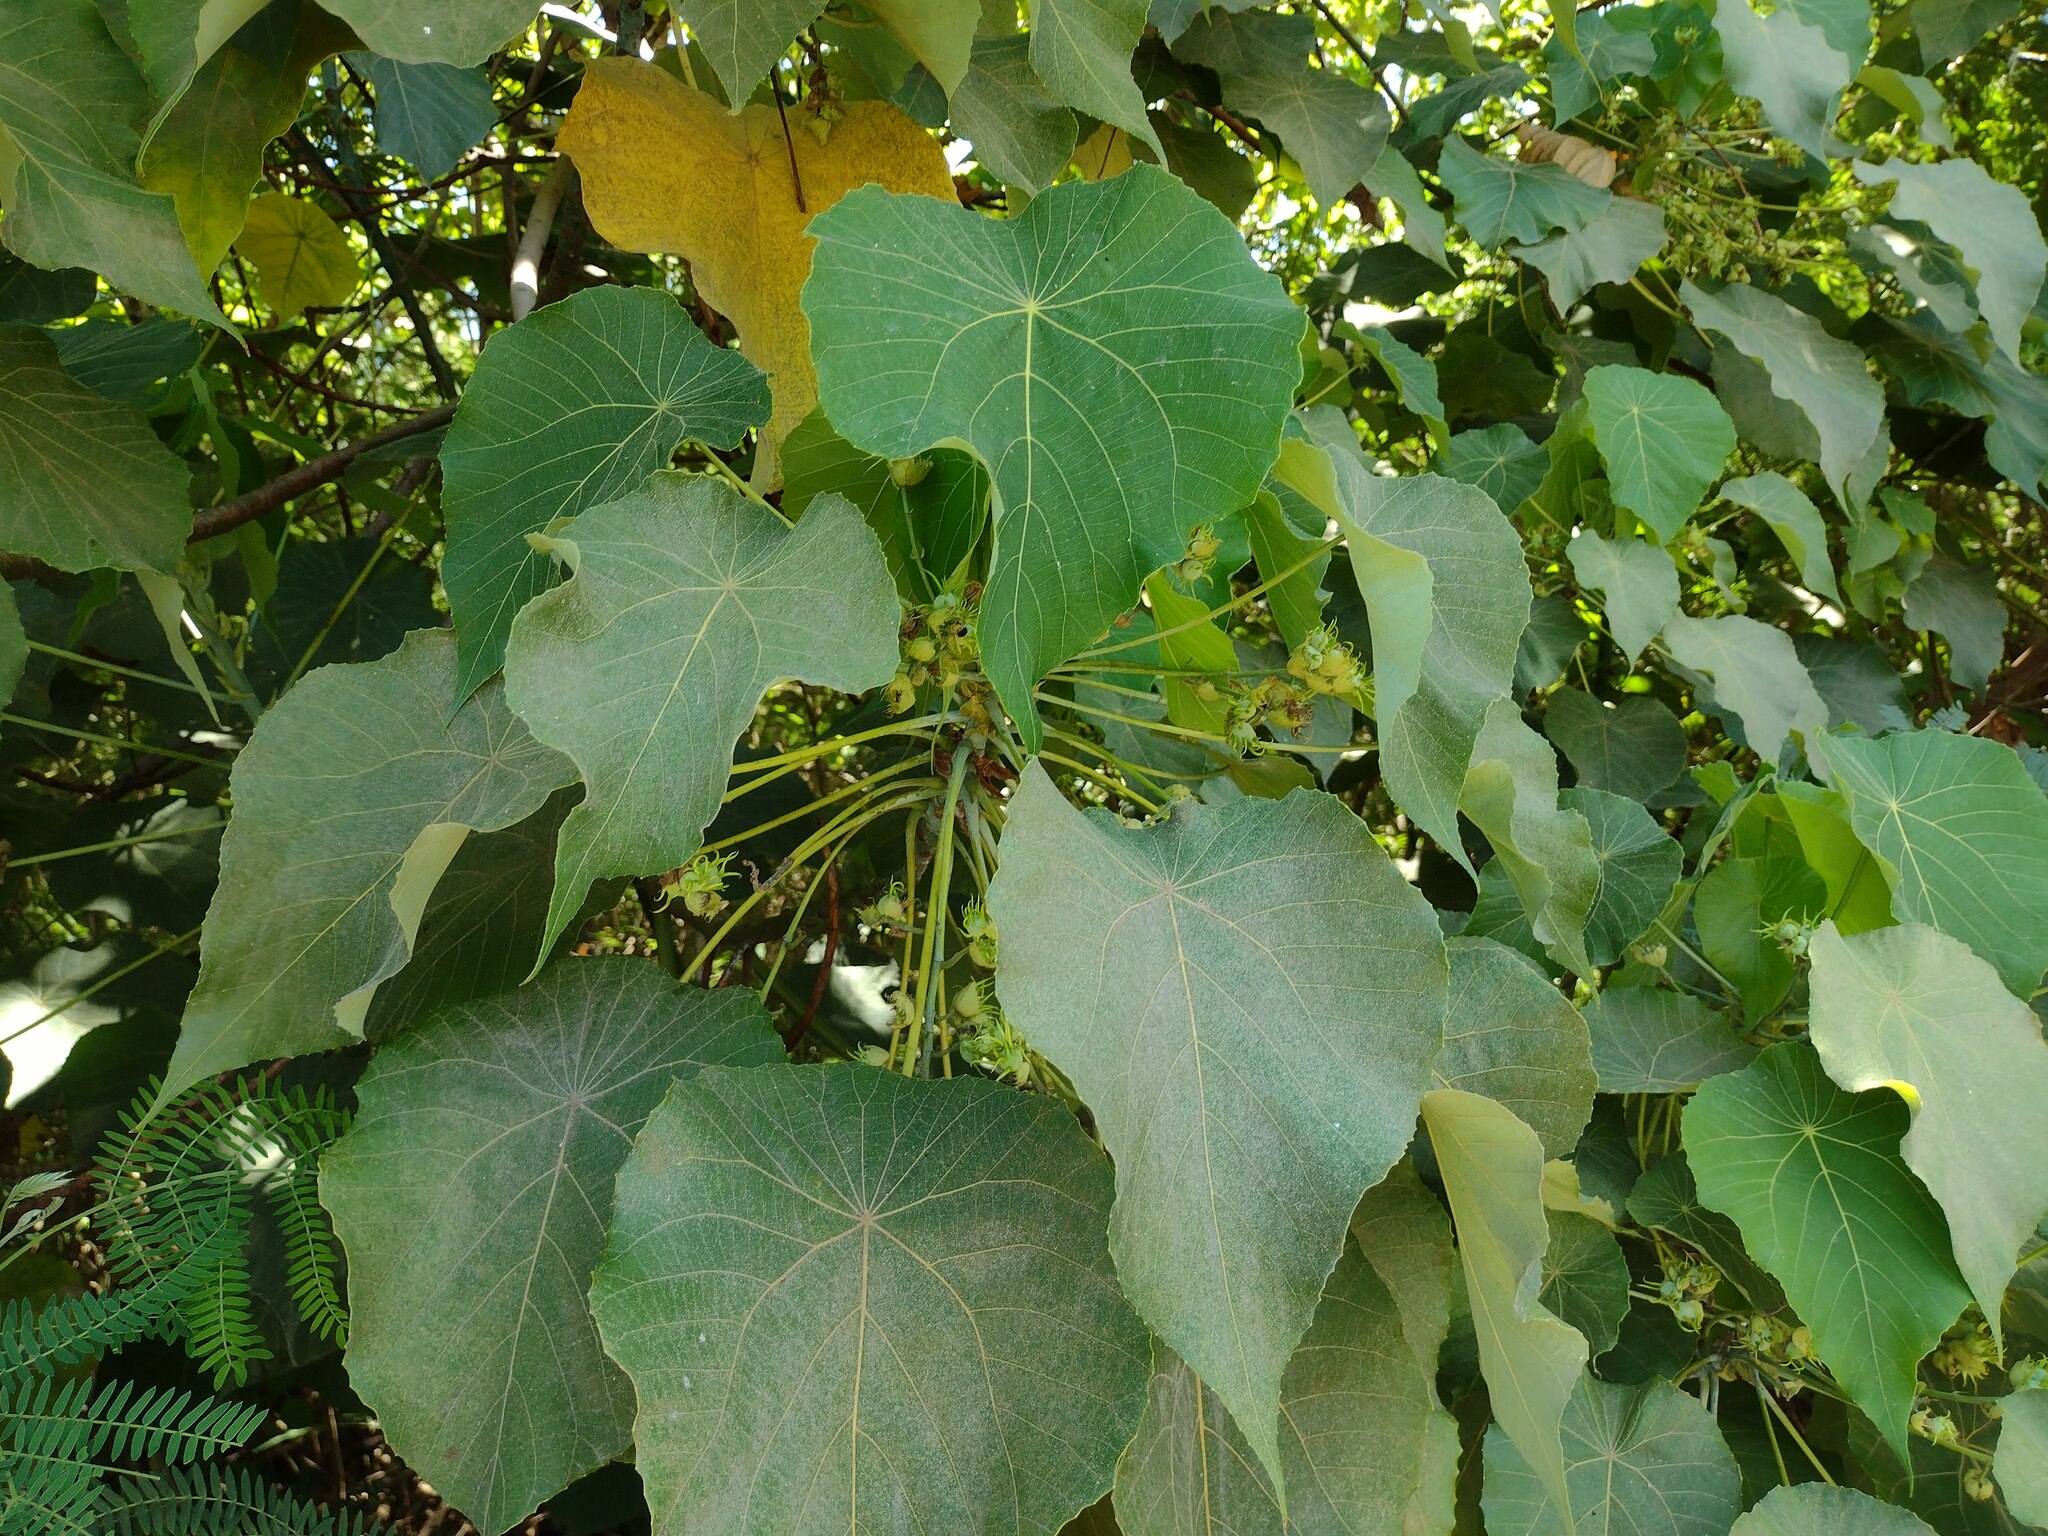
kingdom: Plantae
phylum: Tracheophyta
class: Magnoliopsida
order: Malpighiales
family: Euphorbiaceae
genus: Macaranga
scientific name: Macaranga tanarius
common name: Parasol leaf tree
